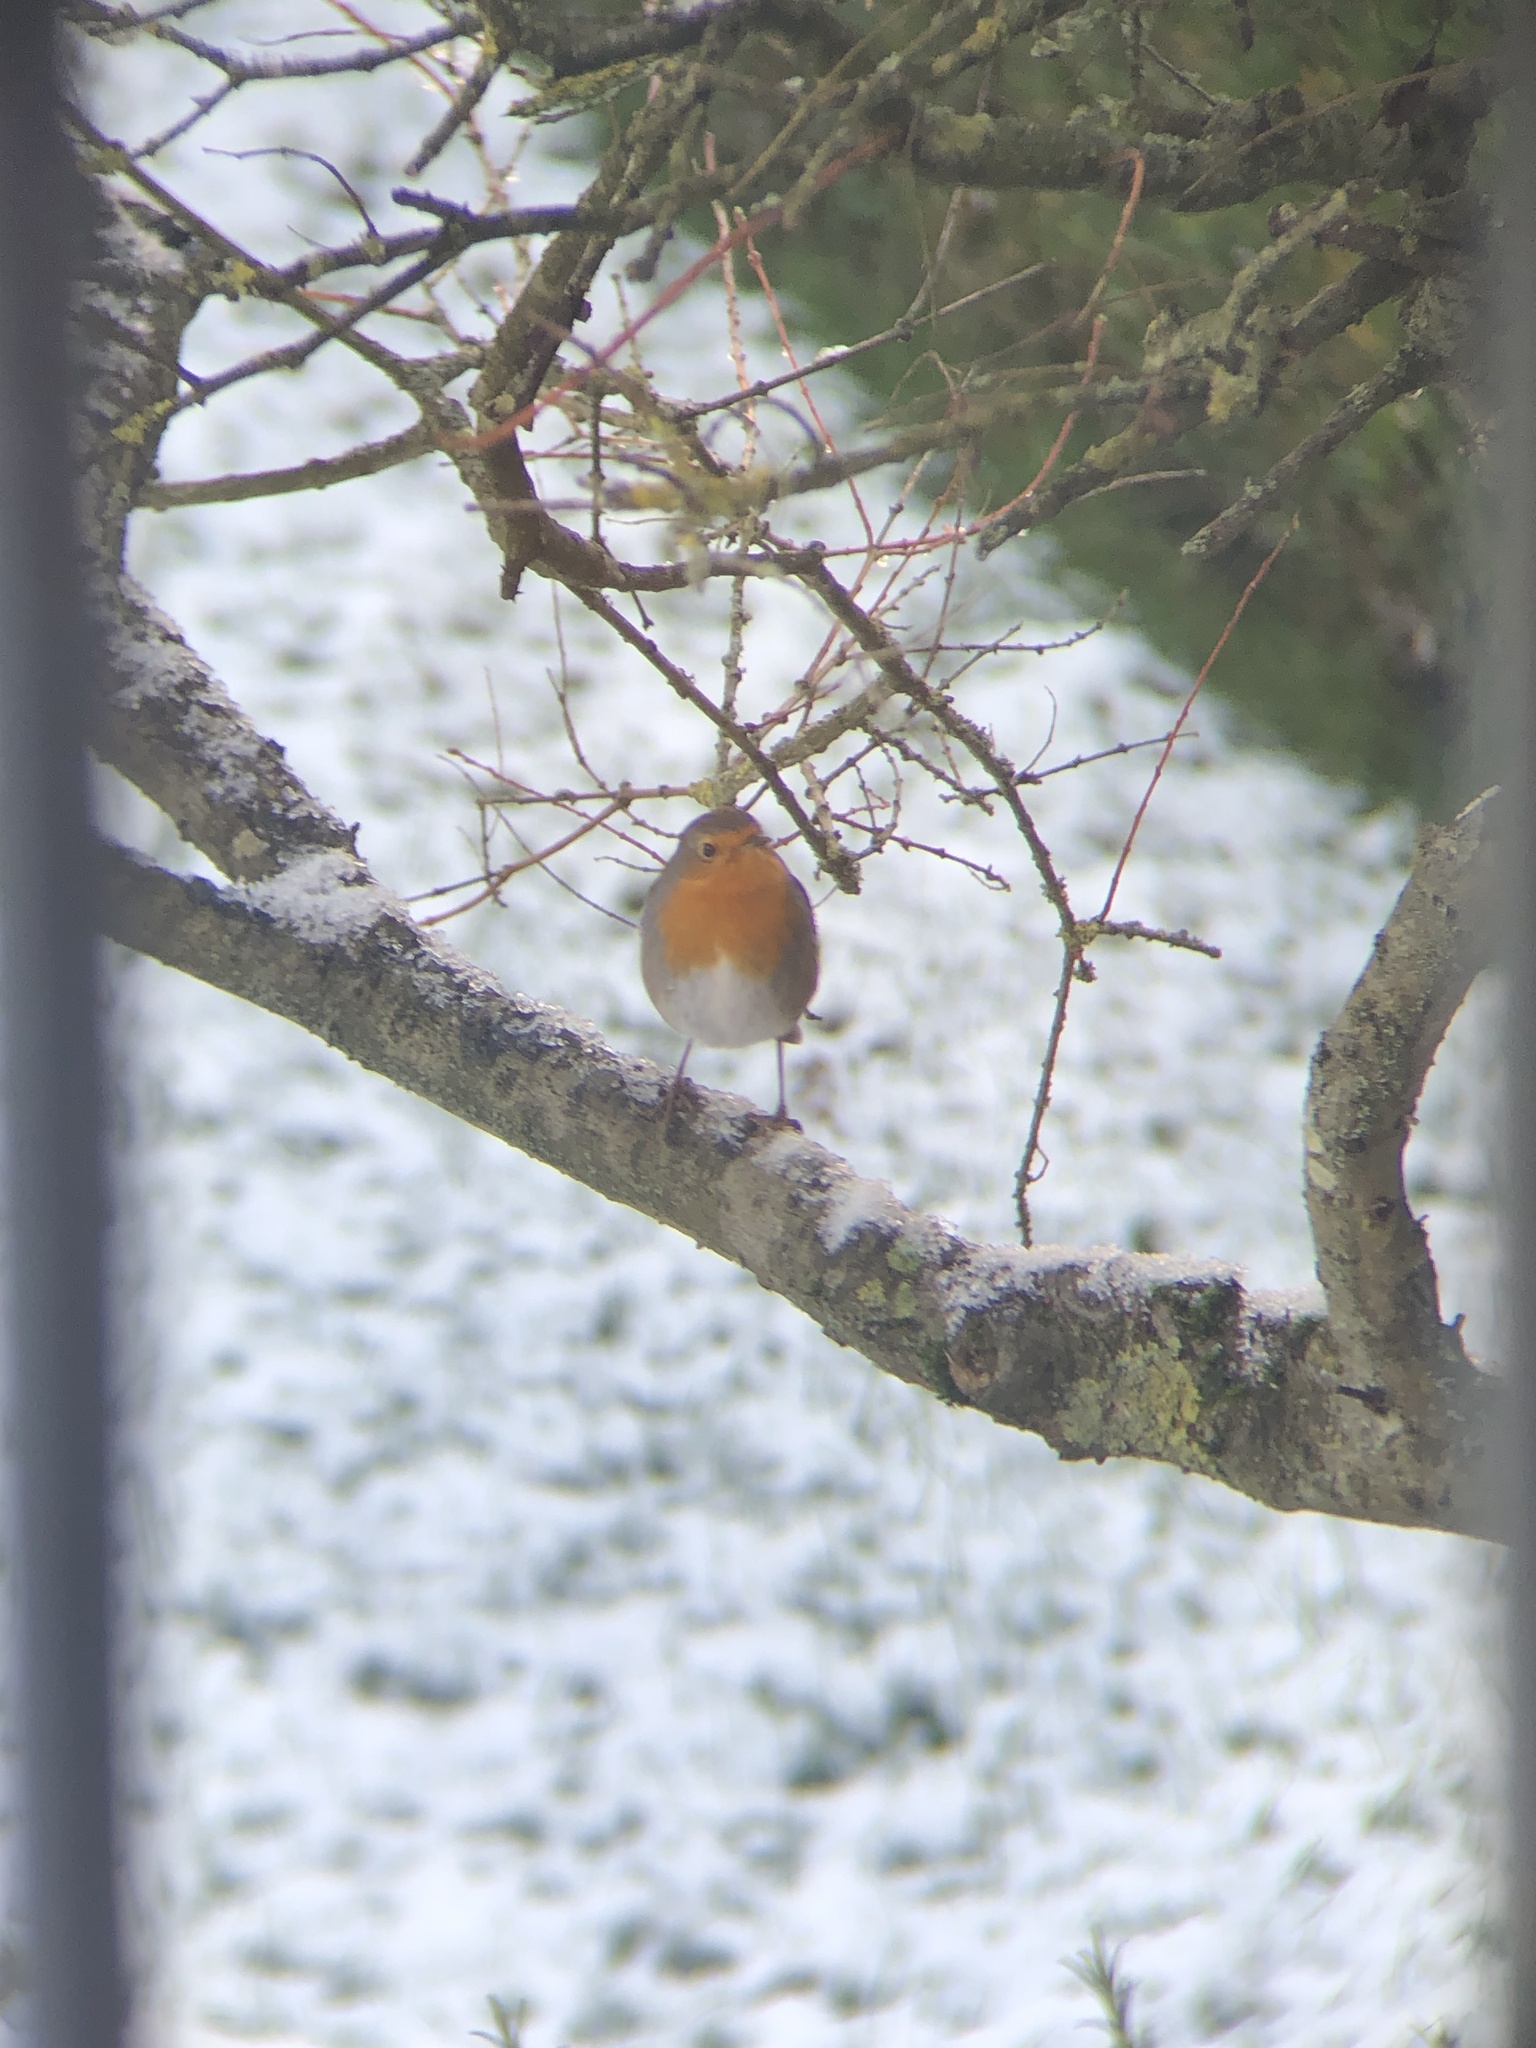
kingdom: Animalia
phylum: Chordata
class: Aves
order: Passeriformes
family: Muscicapidae
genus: Erithacus
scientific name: Erithacus rubecula
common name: European robin
